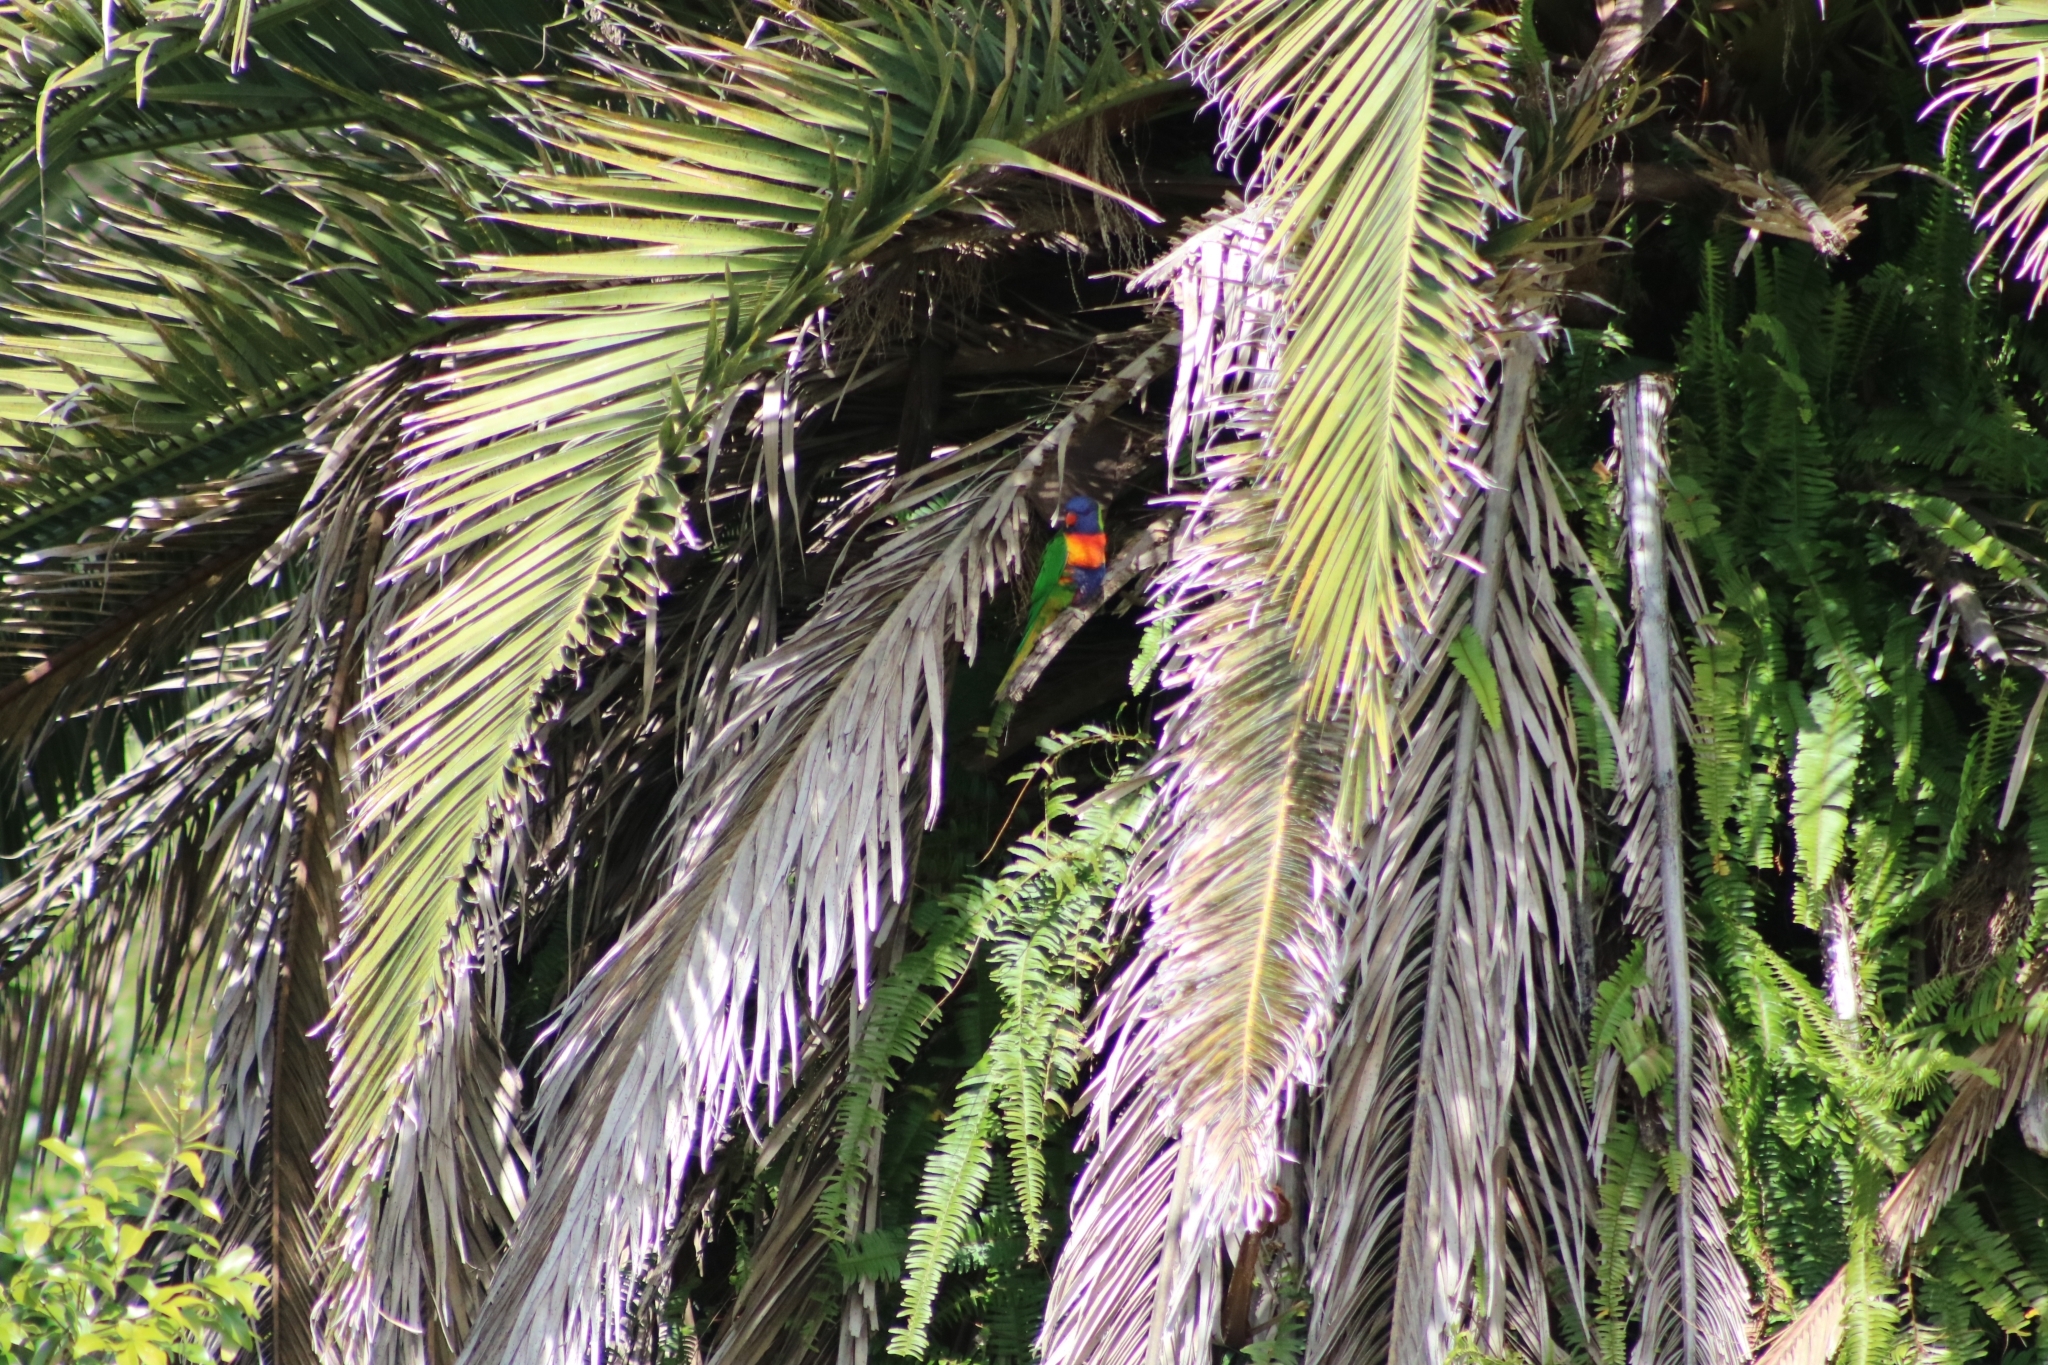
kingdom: Animalia
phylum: Chordata
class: Aves
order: Psittaciformes
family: Psittacidae
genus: Trichoglossus
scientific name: Trichoglossus haematodus
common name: Coconut lorikeet
